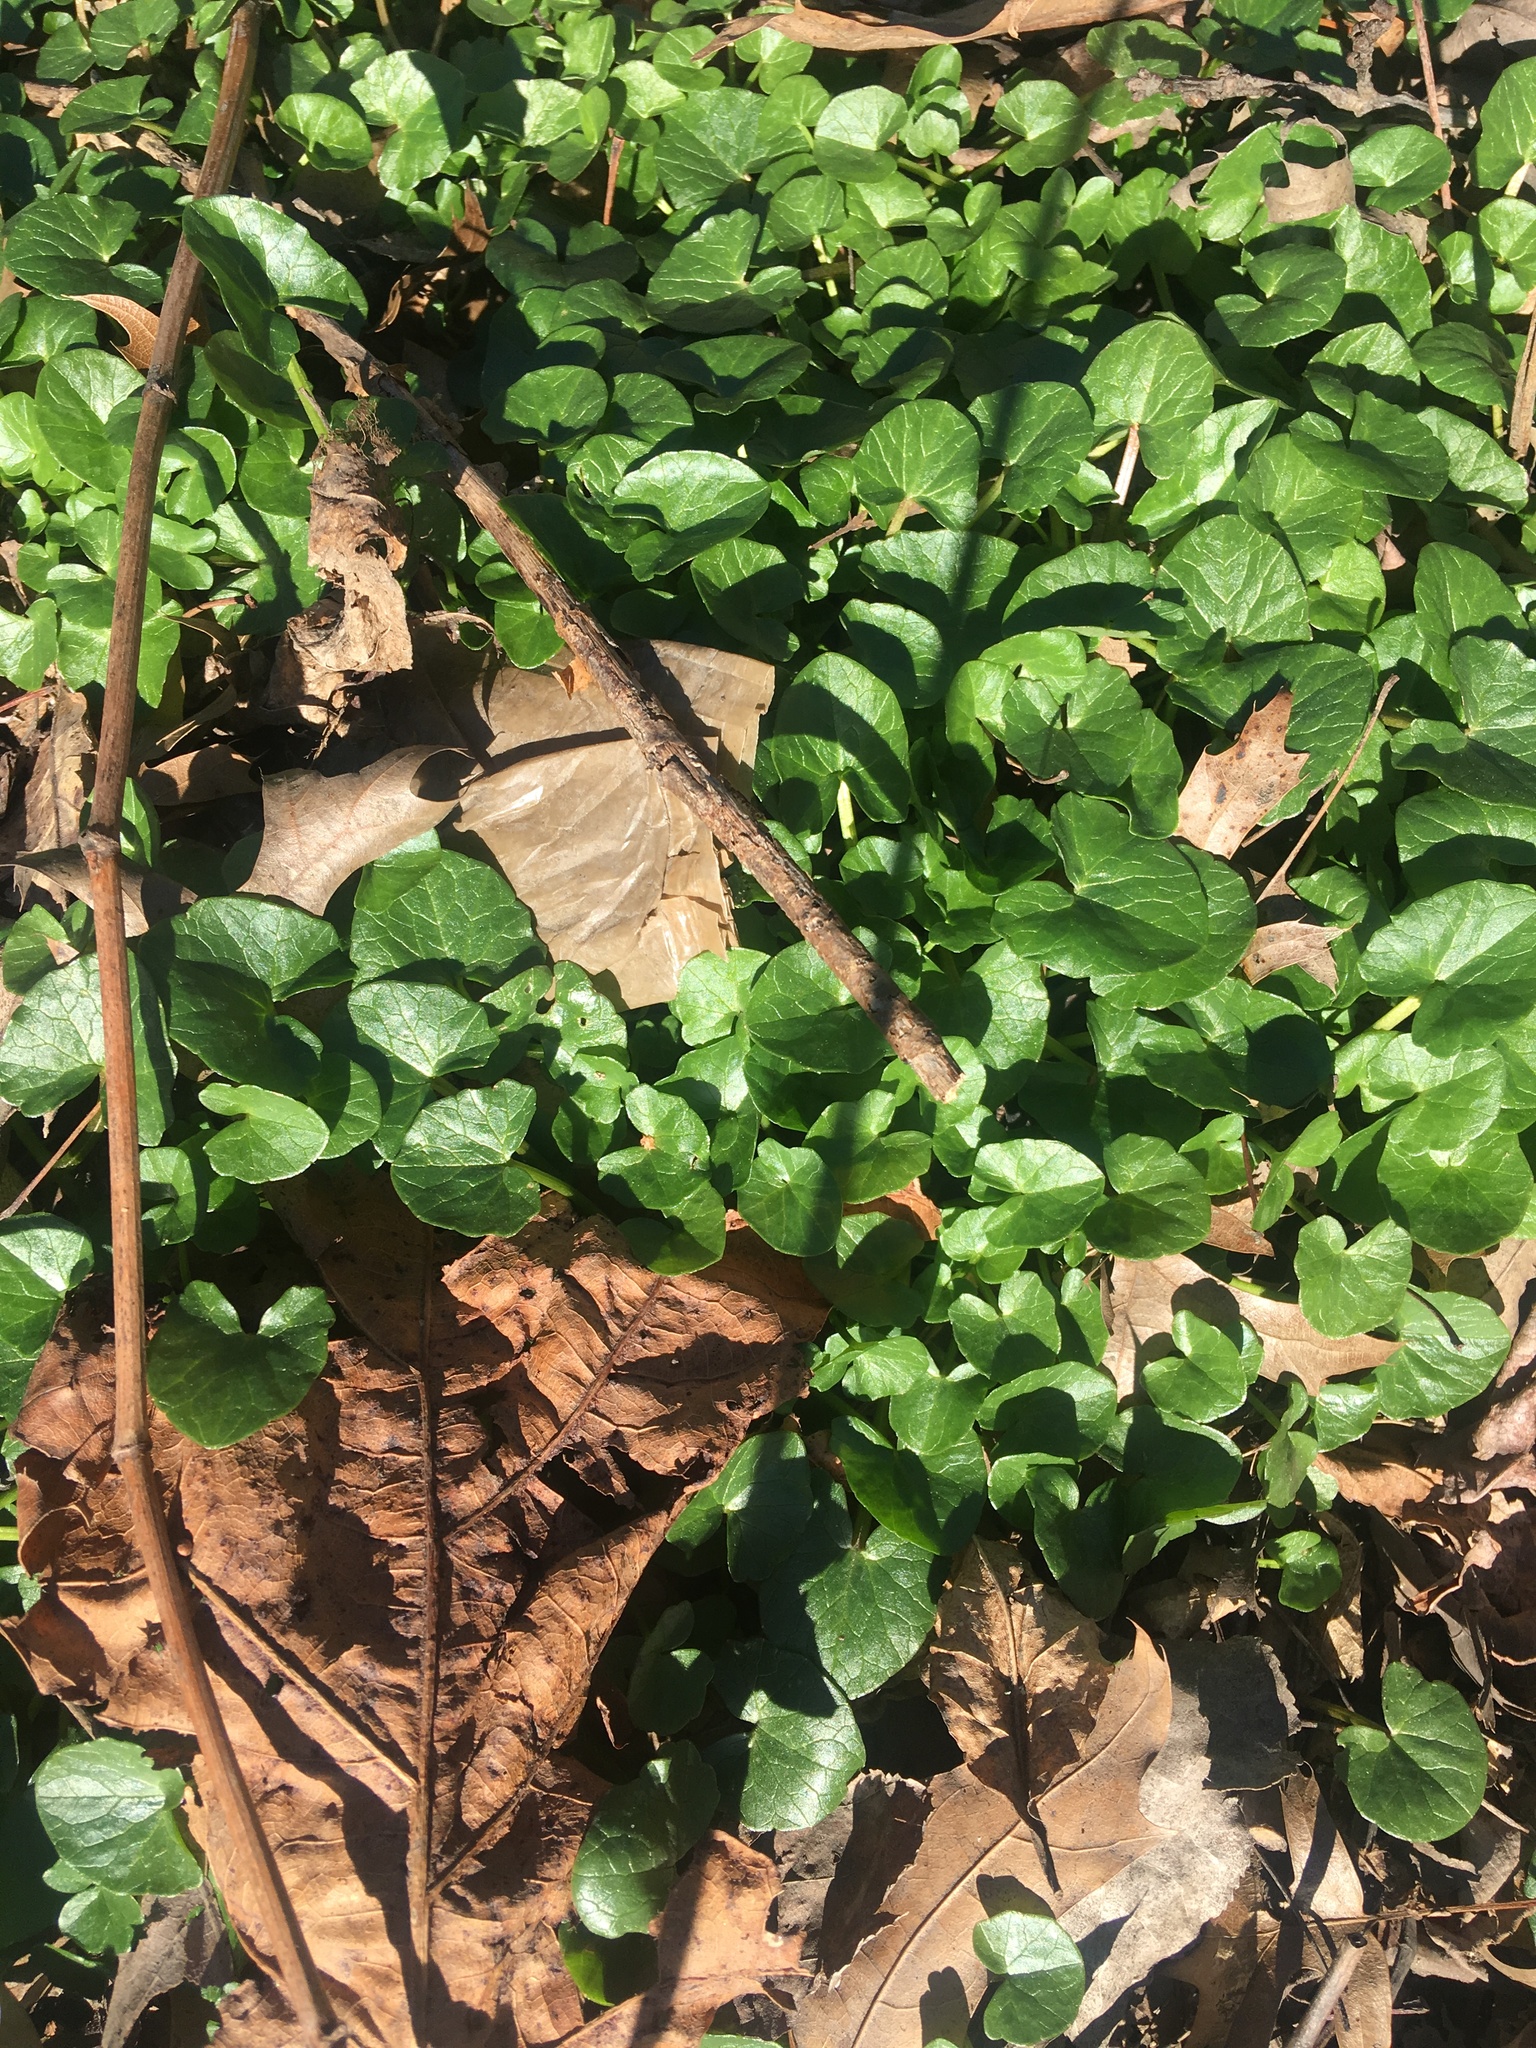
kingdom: Plantae
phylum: Tracheophyta
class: Magnoliopsida
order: Ranunculales
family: Ranunculaceae
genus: Ficaria
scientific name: Ficaria verna
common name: Lesser celandine
